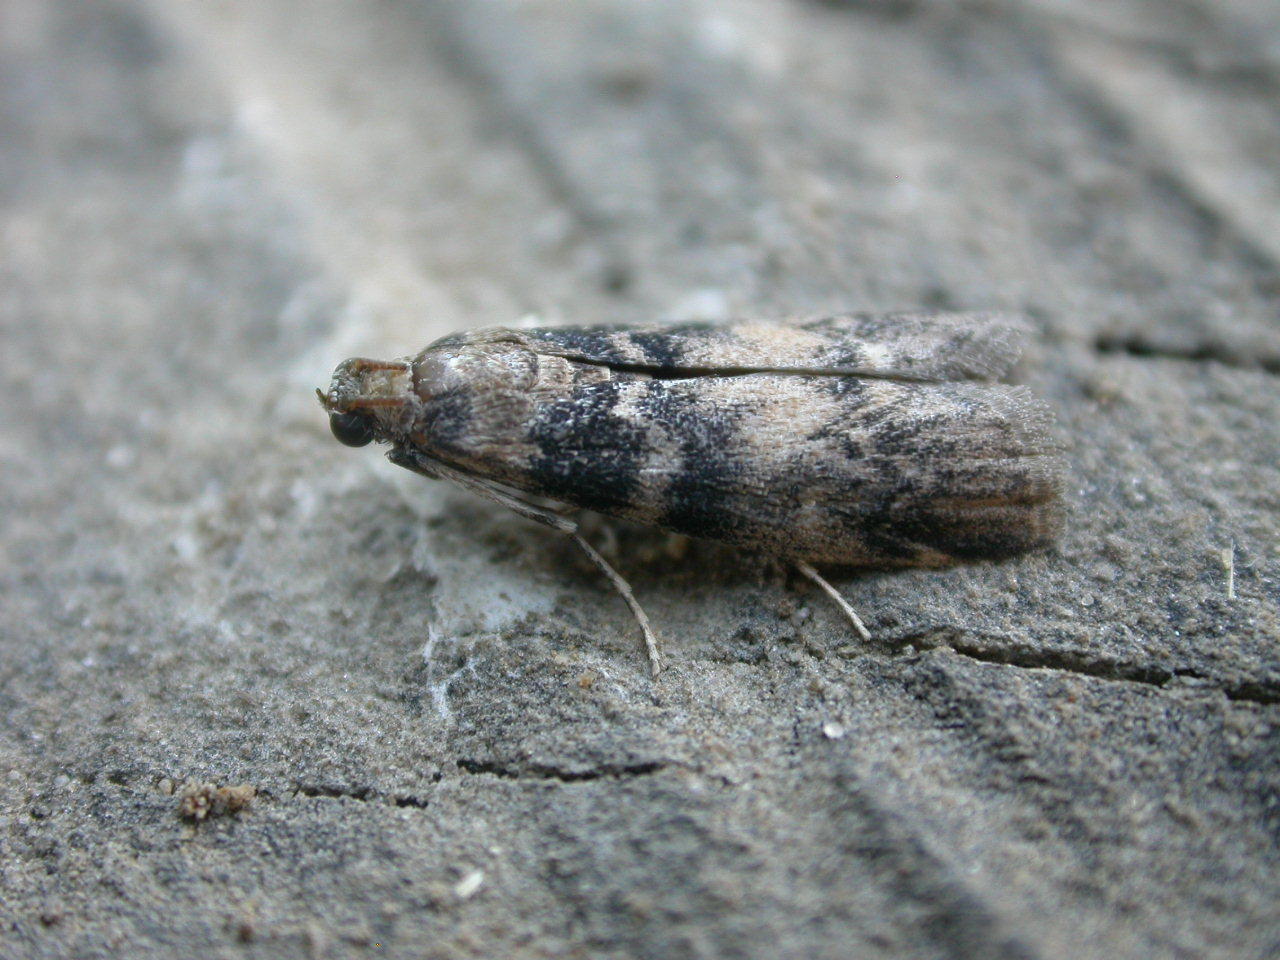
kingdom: Animalia
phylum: Arthropoda
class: Insecta
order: Lepidoptera
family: Pyralidae
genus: Euzophera
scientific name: Euzophera pinguis
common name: Ash-bark knot-horn
